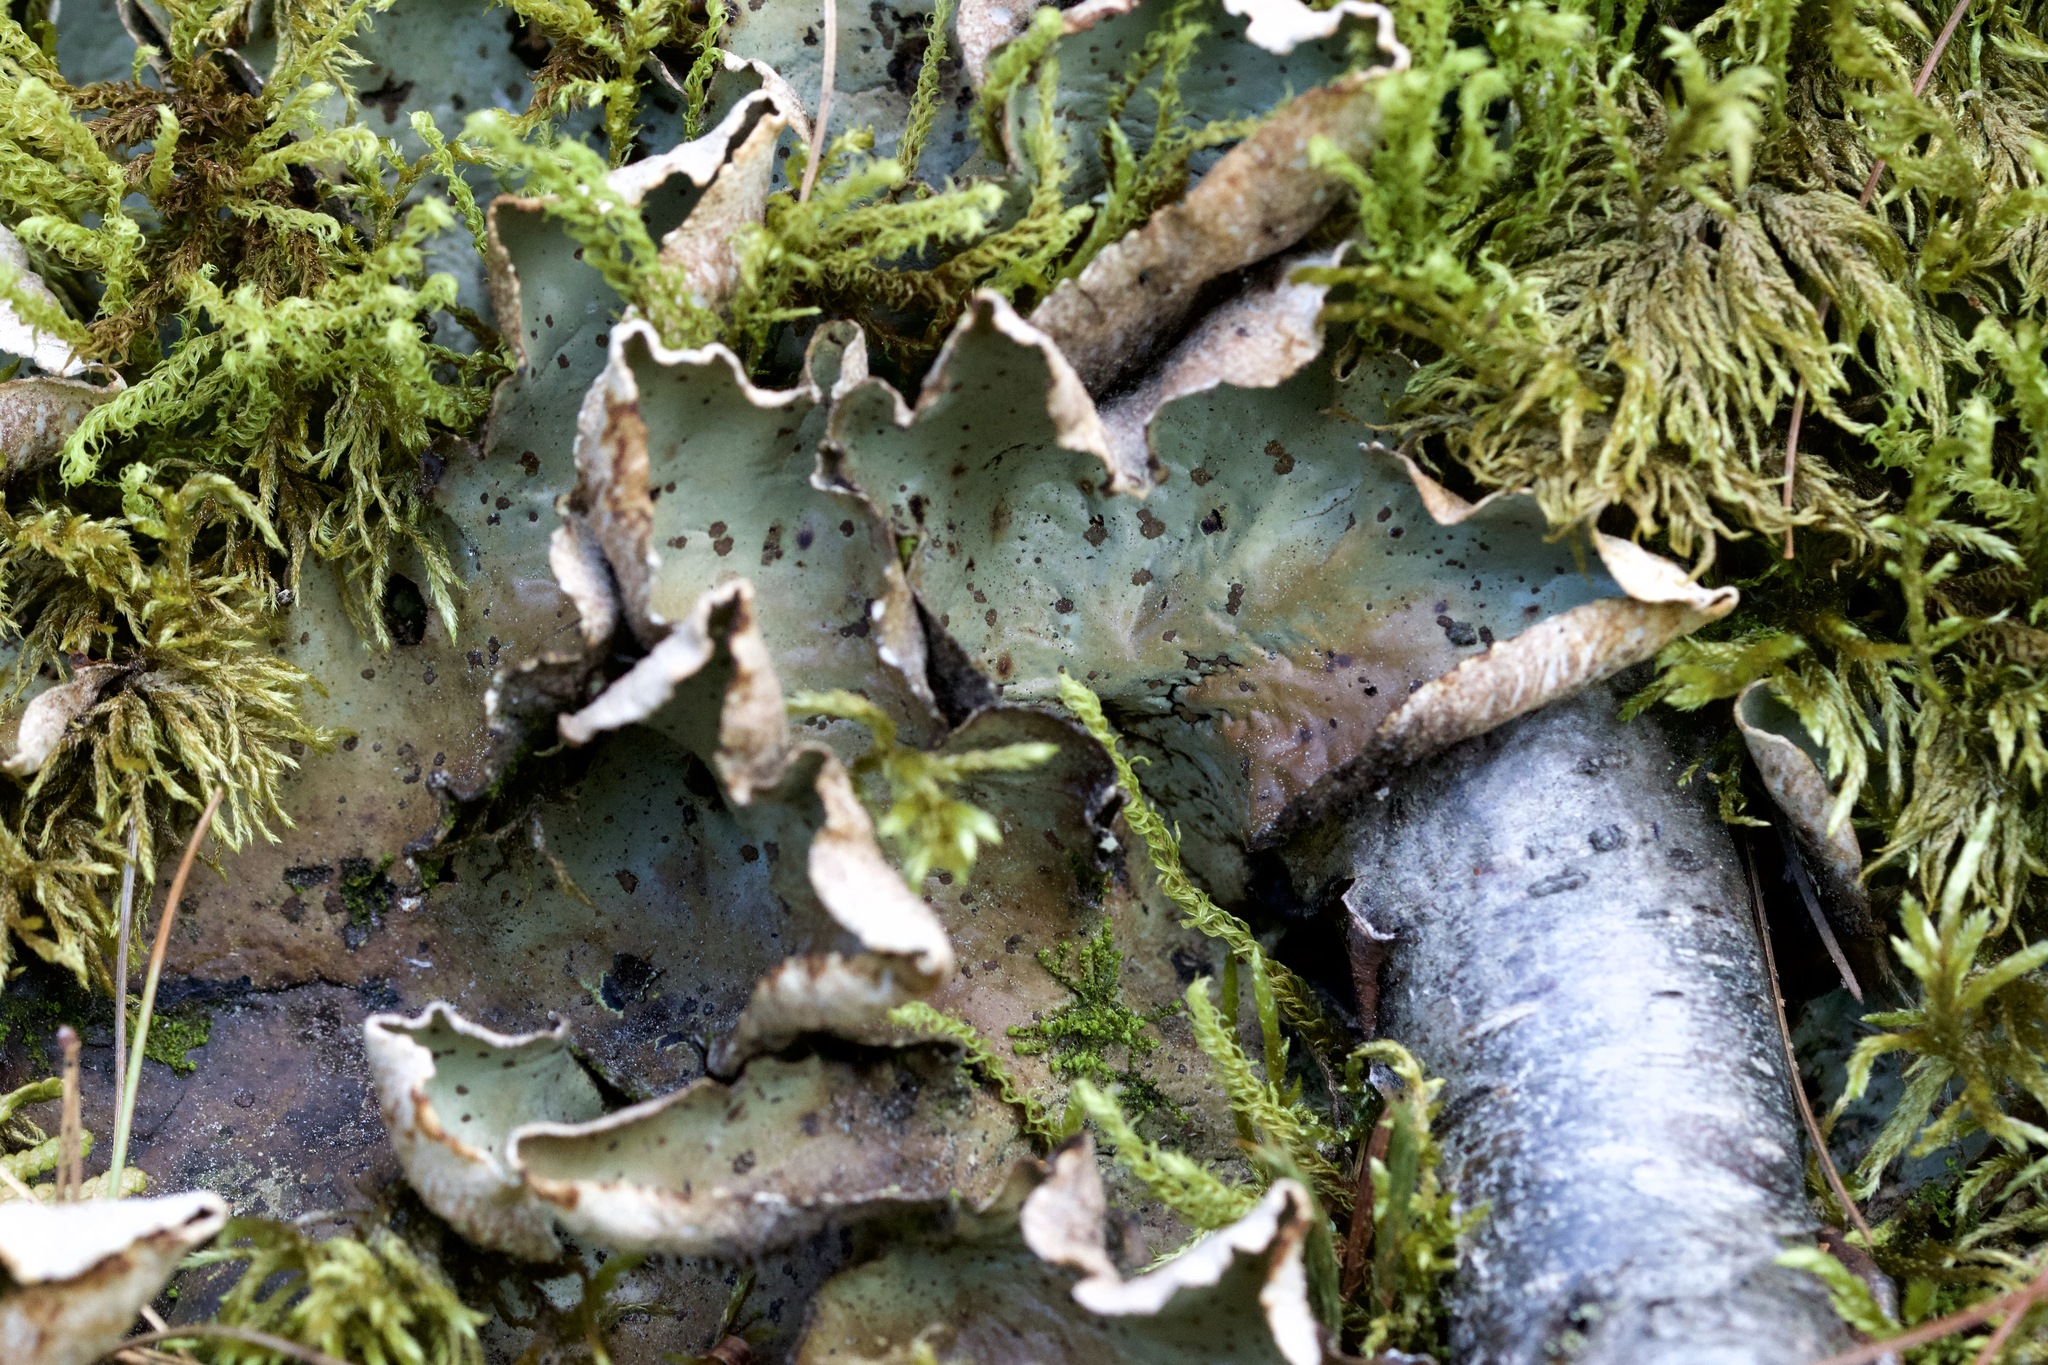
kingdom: Fungi
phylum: Ascomycota
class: Lecanoromycetes
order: Peltigerales
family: Peltigeraceae
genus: Peltigera
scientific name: Peltigera leucophlebia
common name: Ruffled freckle pelt lichen
